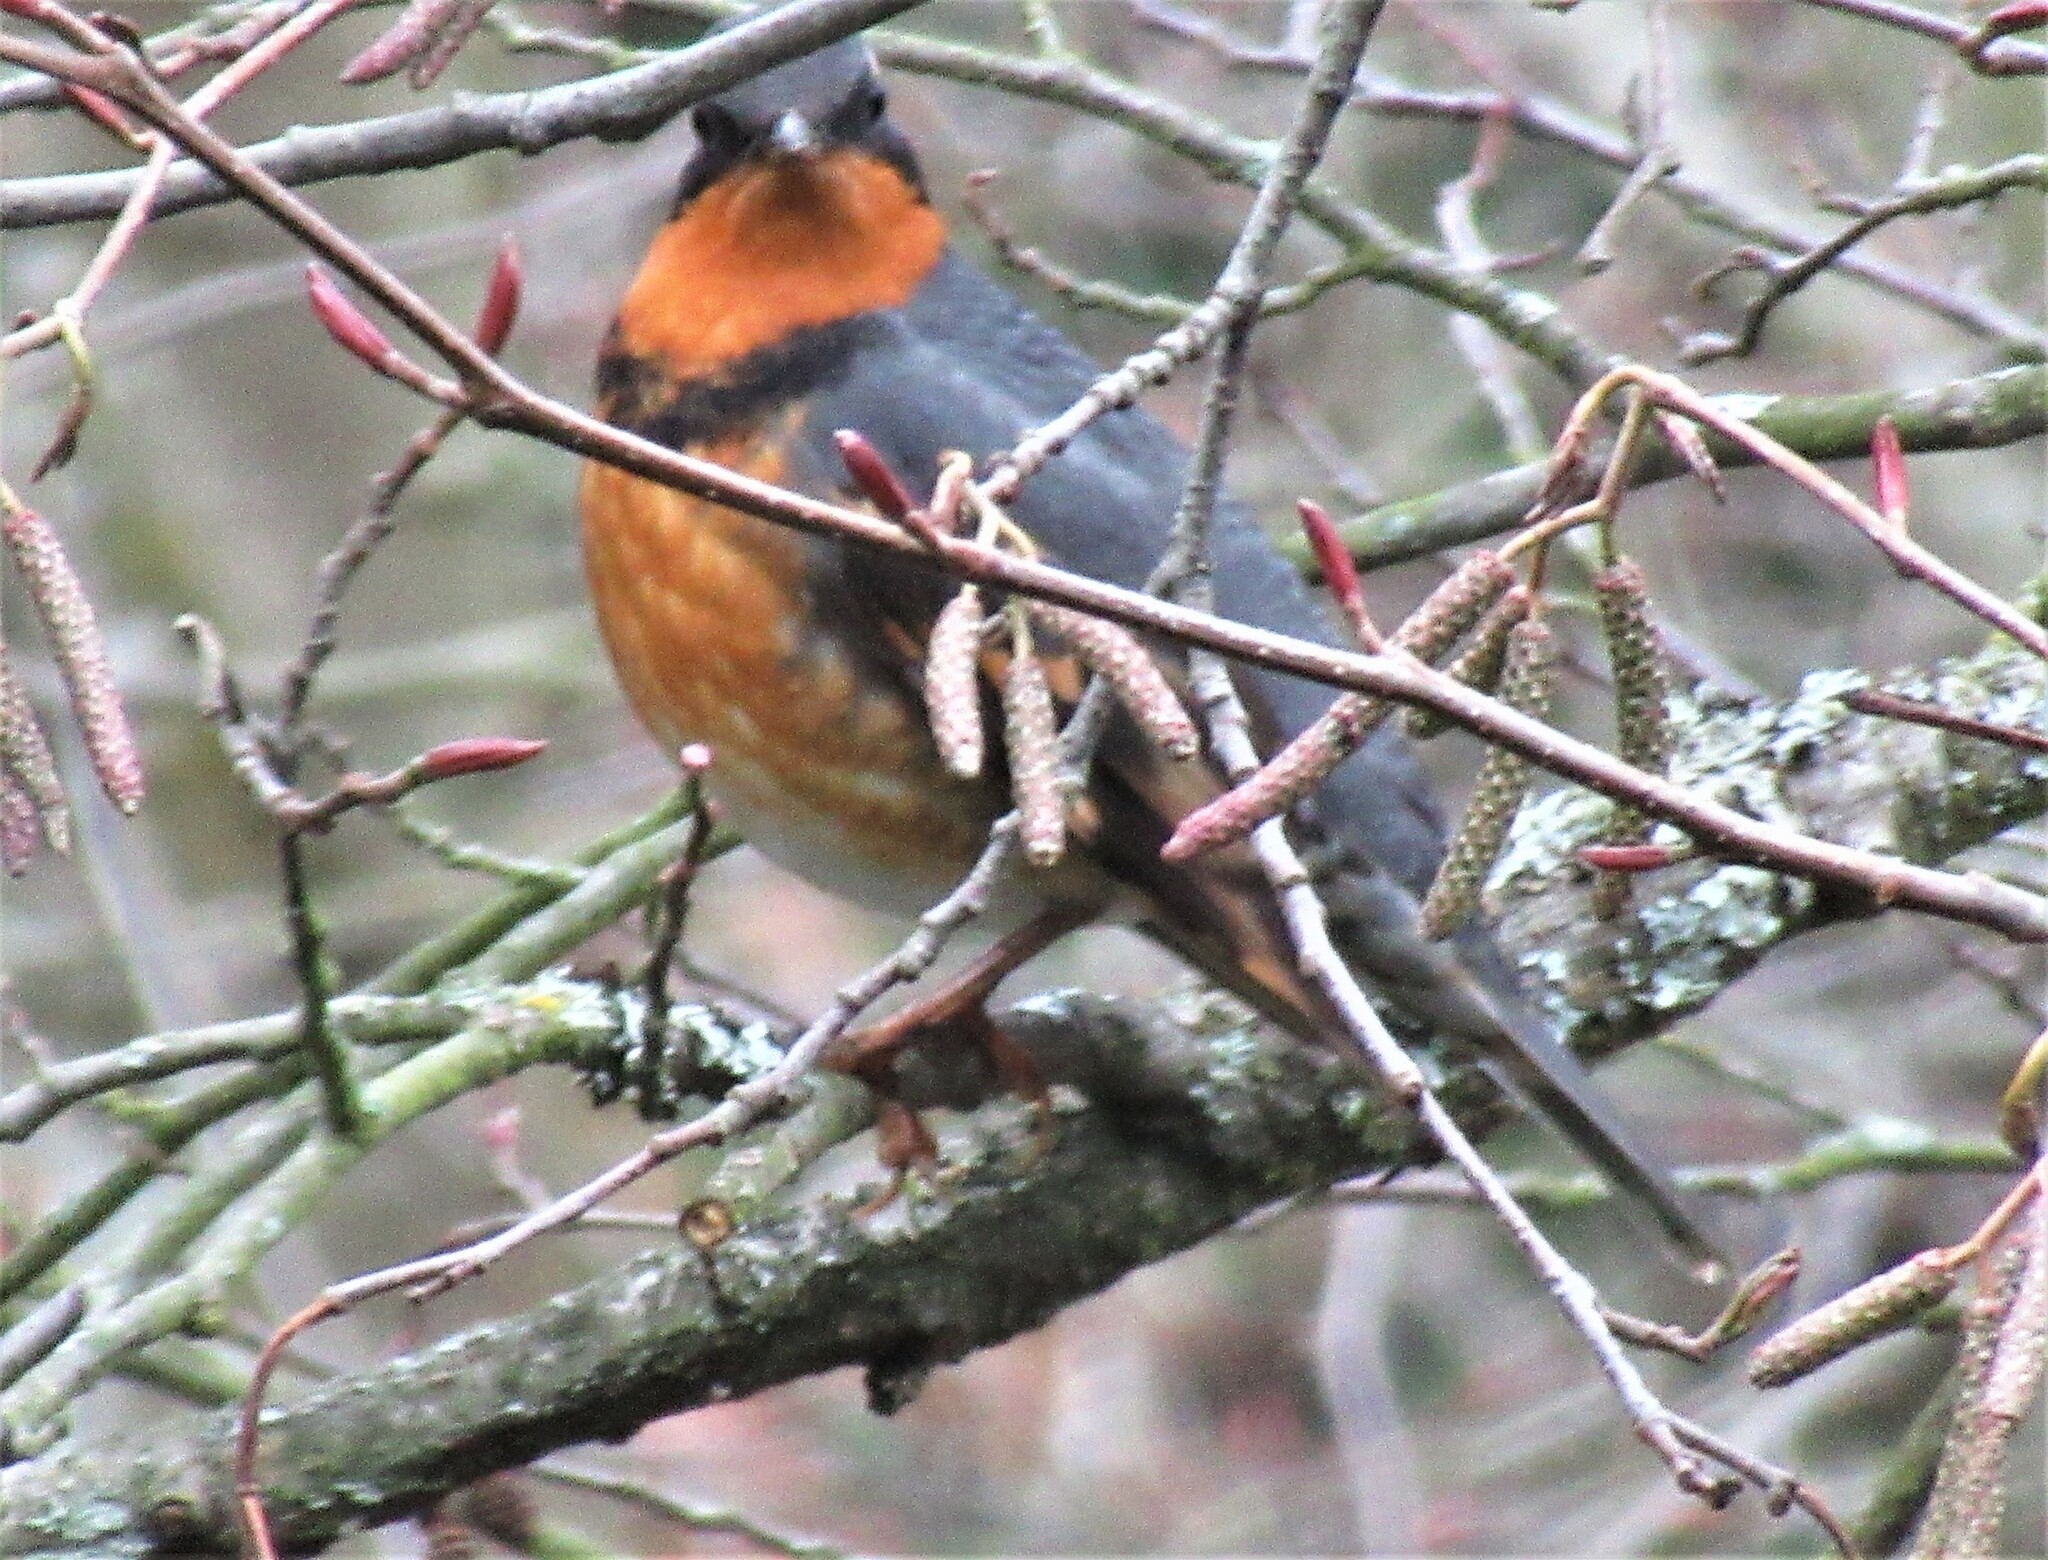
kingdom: Animalia
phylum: Chordata
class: Aves
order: Passeriformes
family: Turdidae
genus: Ixoreus
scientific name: Ixoreus naevius
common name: Varied thrush
